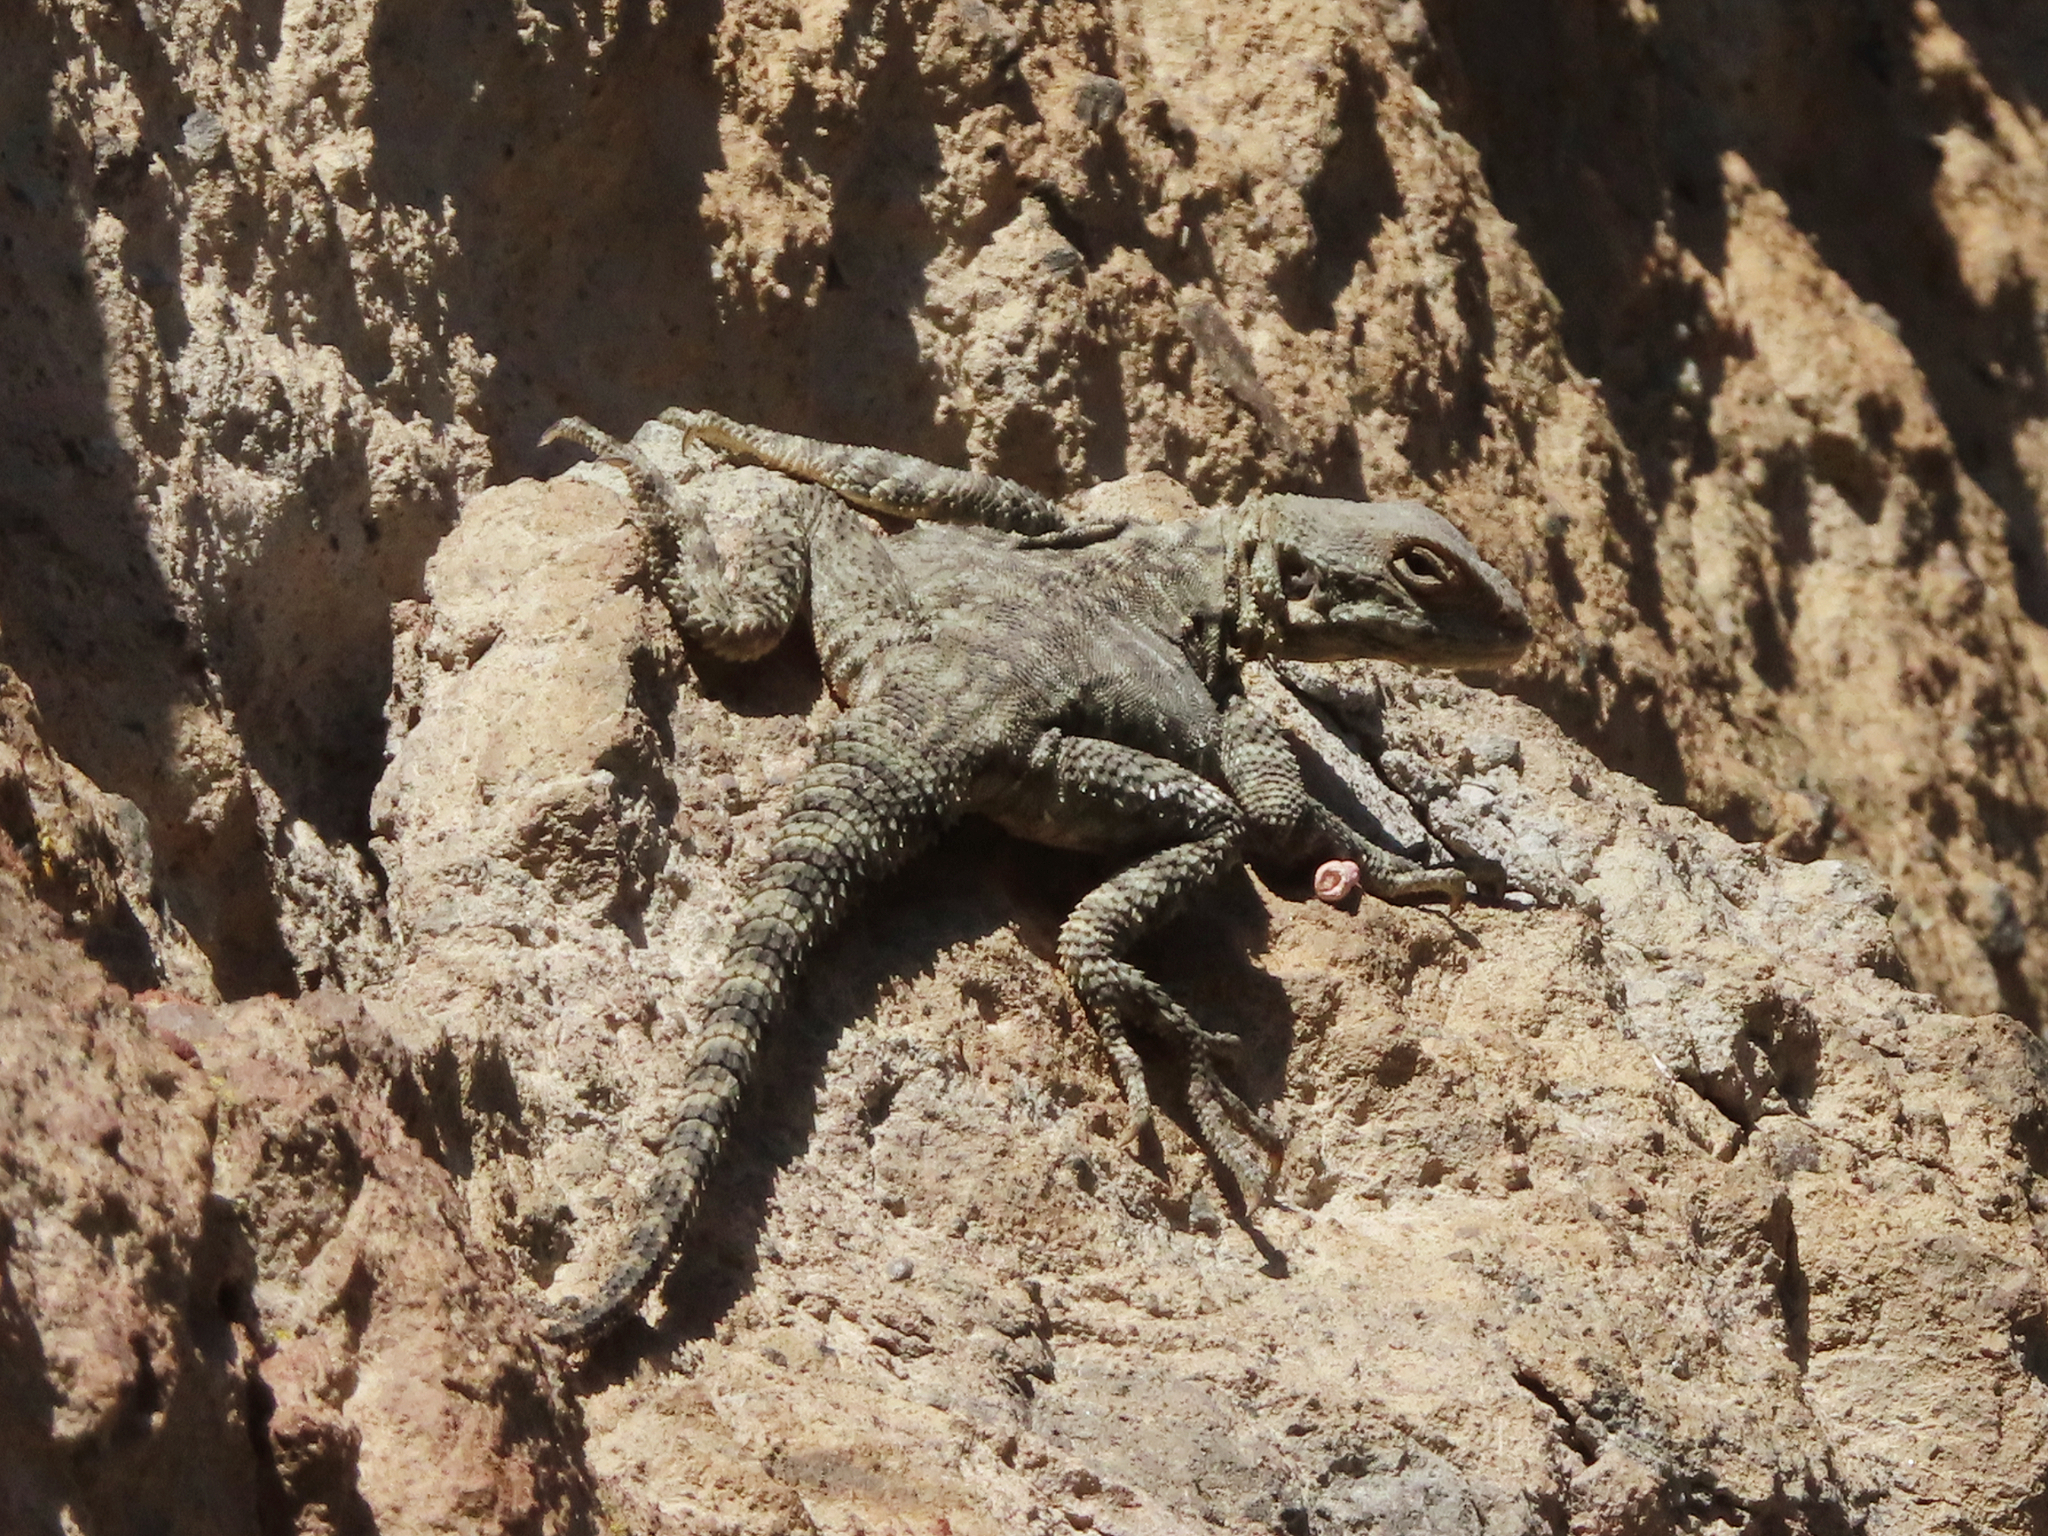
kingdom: Animalia
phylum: Chordata
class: Squamata
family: Agamidae
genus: Paralaudakia
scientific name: Paralaudakia caucasia
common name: Caucasian agama
